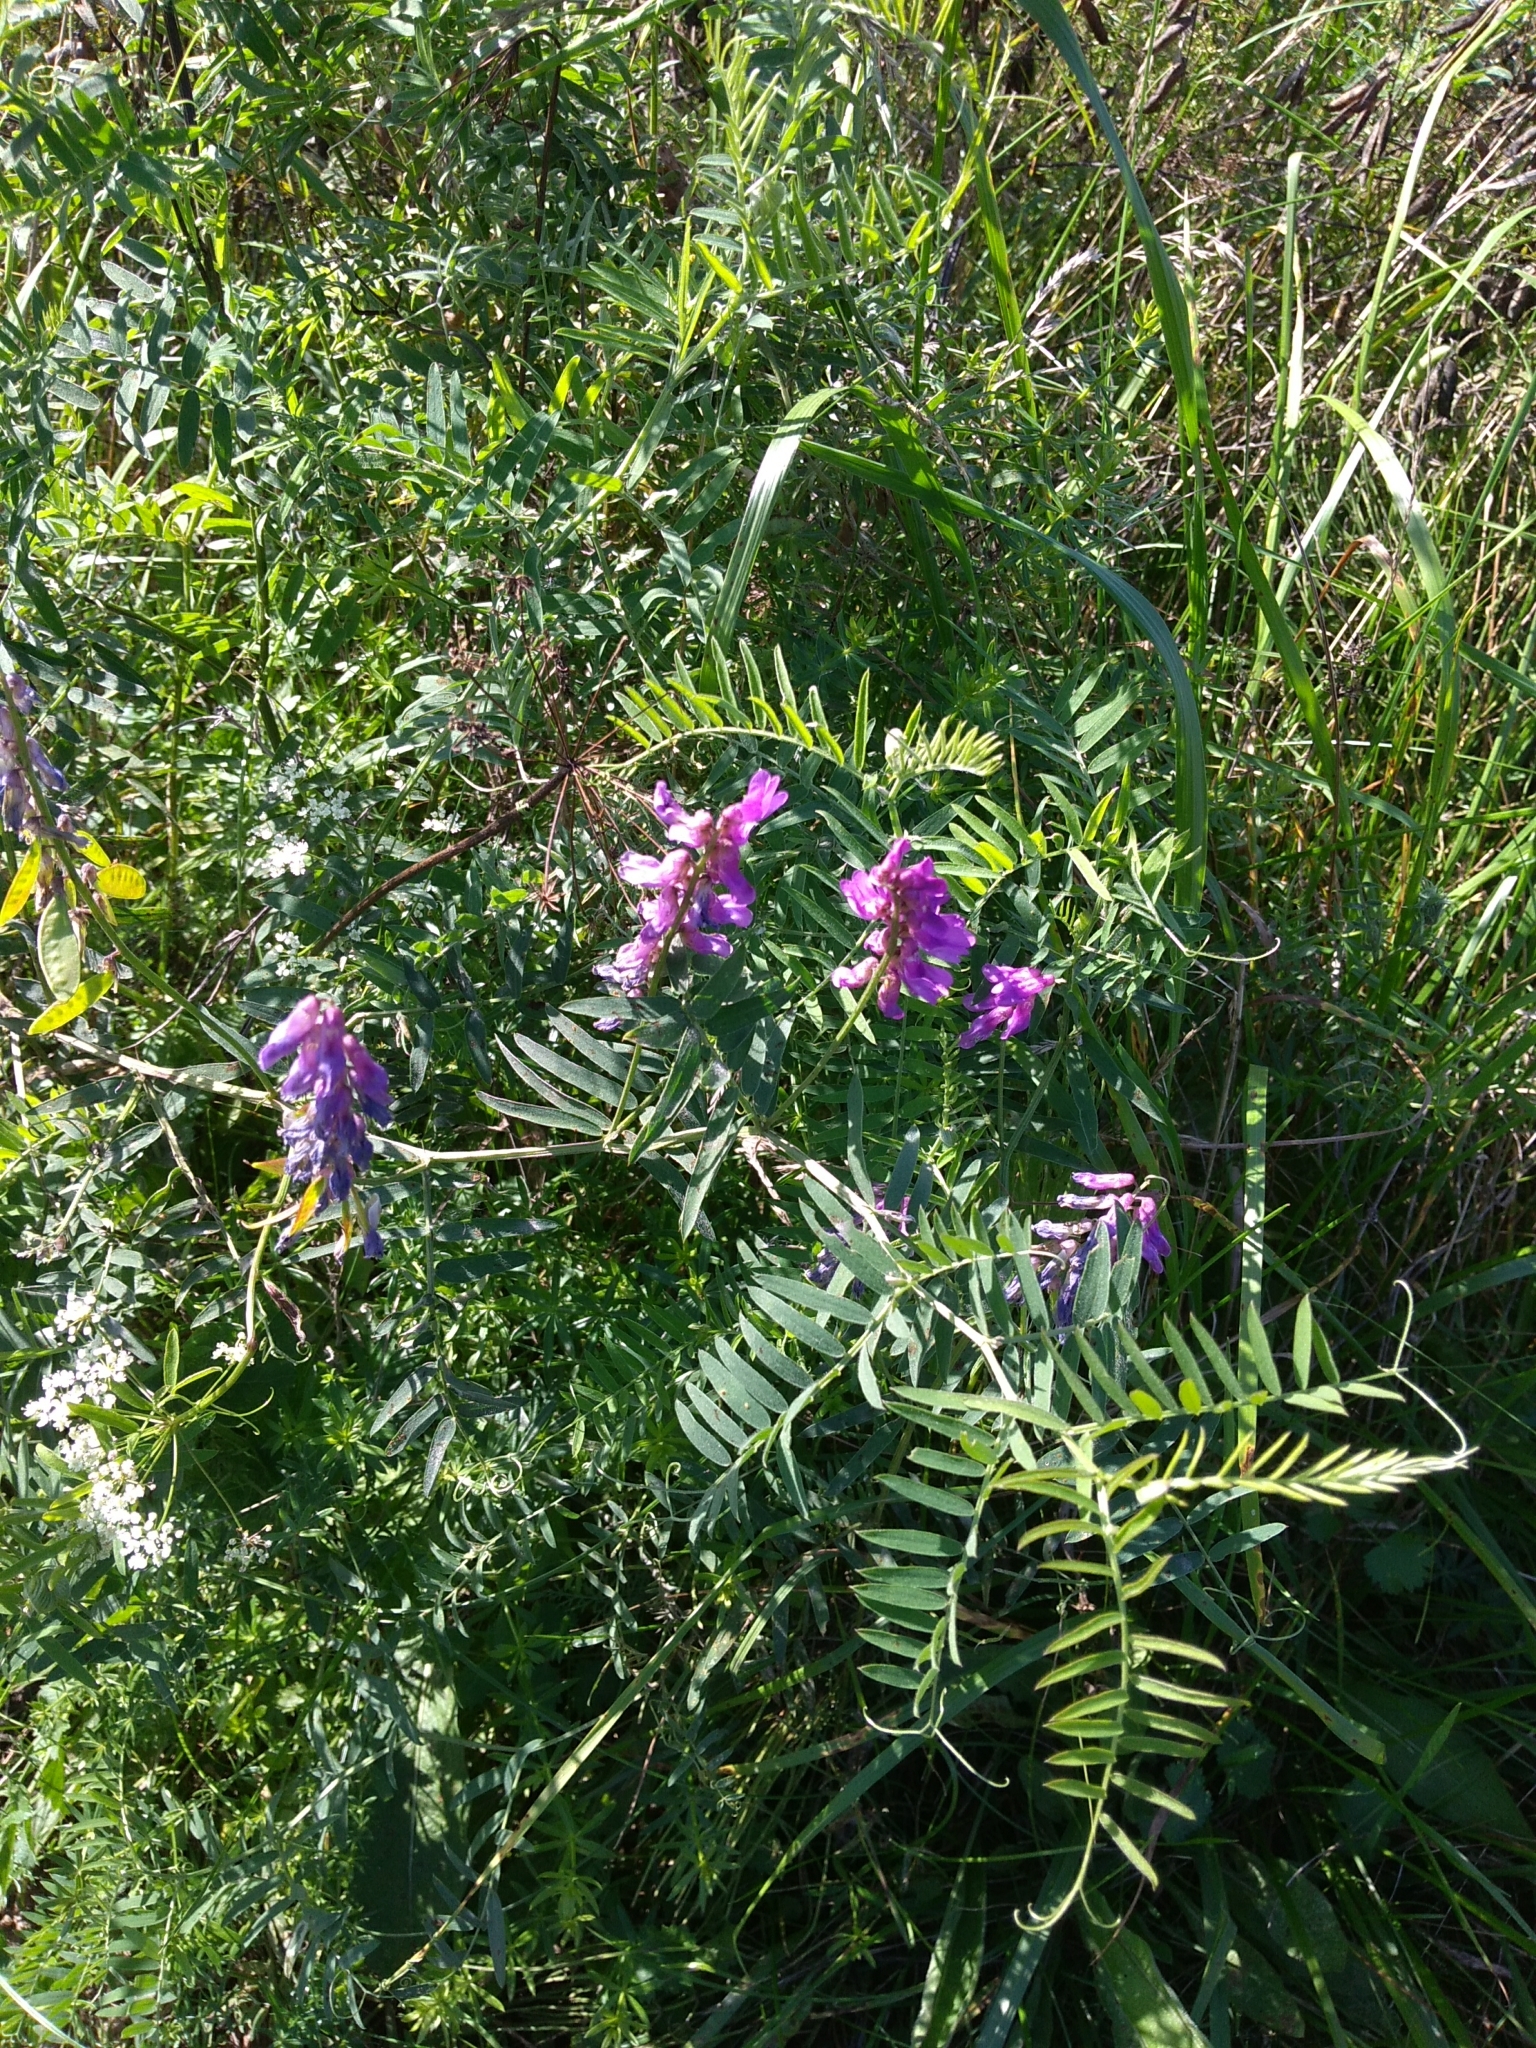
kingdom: Plantae
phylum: Tracheophyta
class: Magnoliopsida
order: Fabales
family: Fabaceae
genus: Vicia
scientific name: Vicia cracca
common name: Bird vetch
